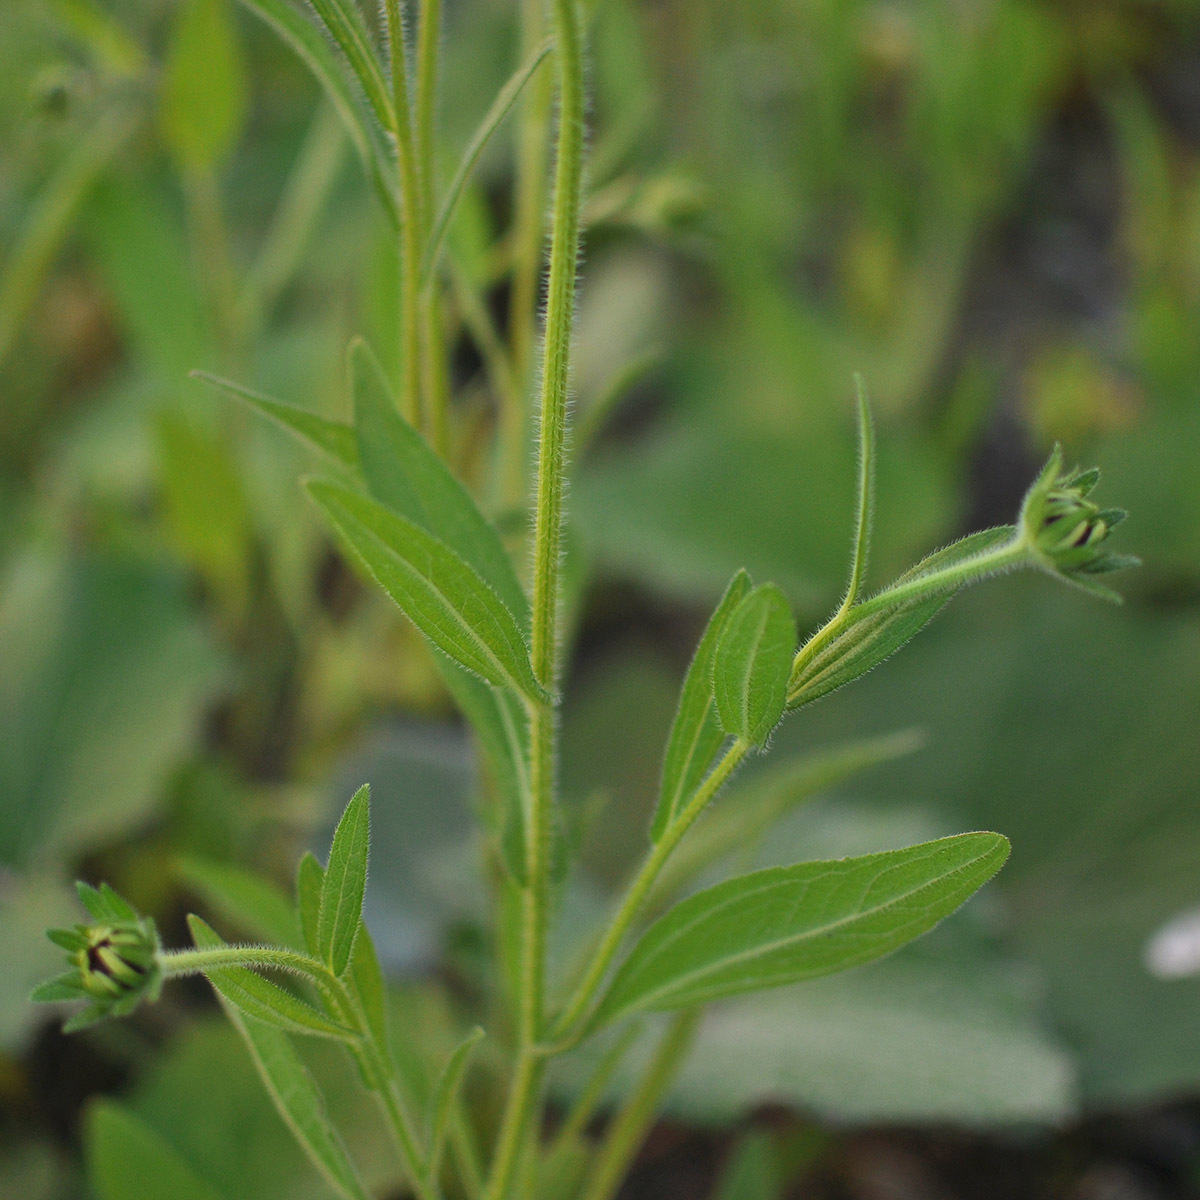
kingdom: Plantae
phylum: Tracheophyta
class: Magnoliopsida
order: Asterales
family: Asteraceae
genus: Rudbeckia
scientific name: Rudbeckia hirta
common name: Black-eyed-susan
